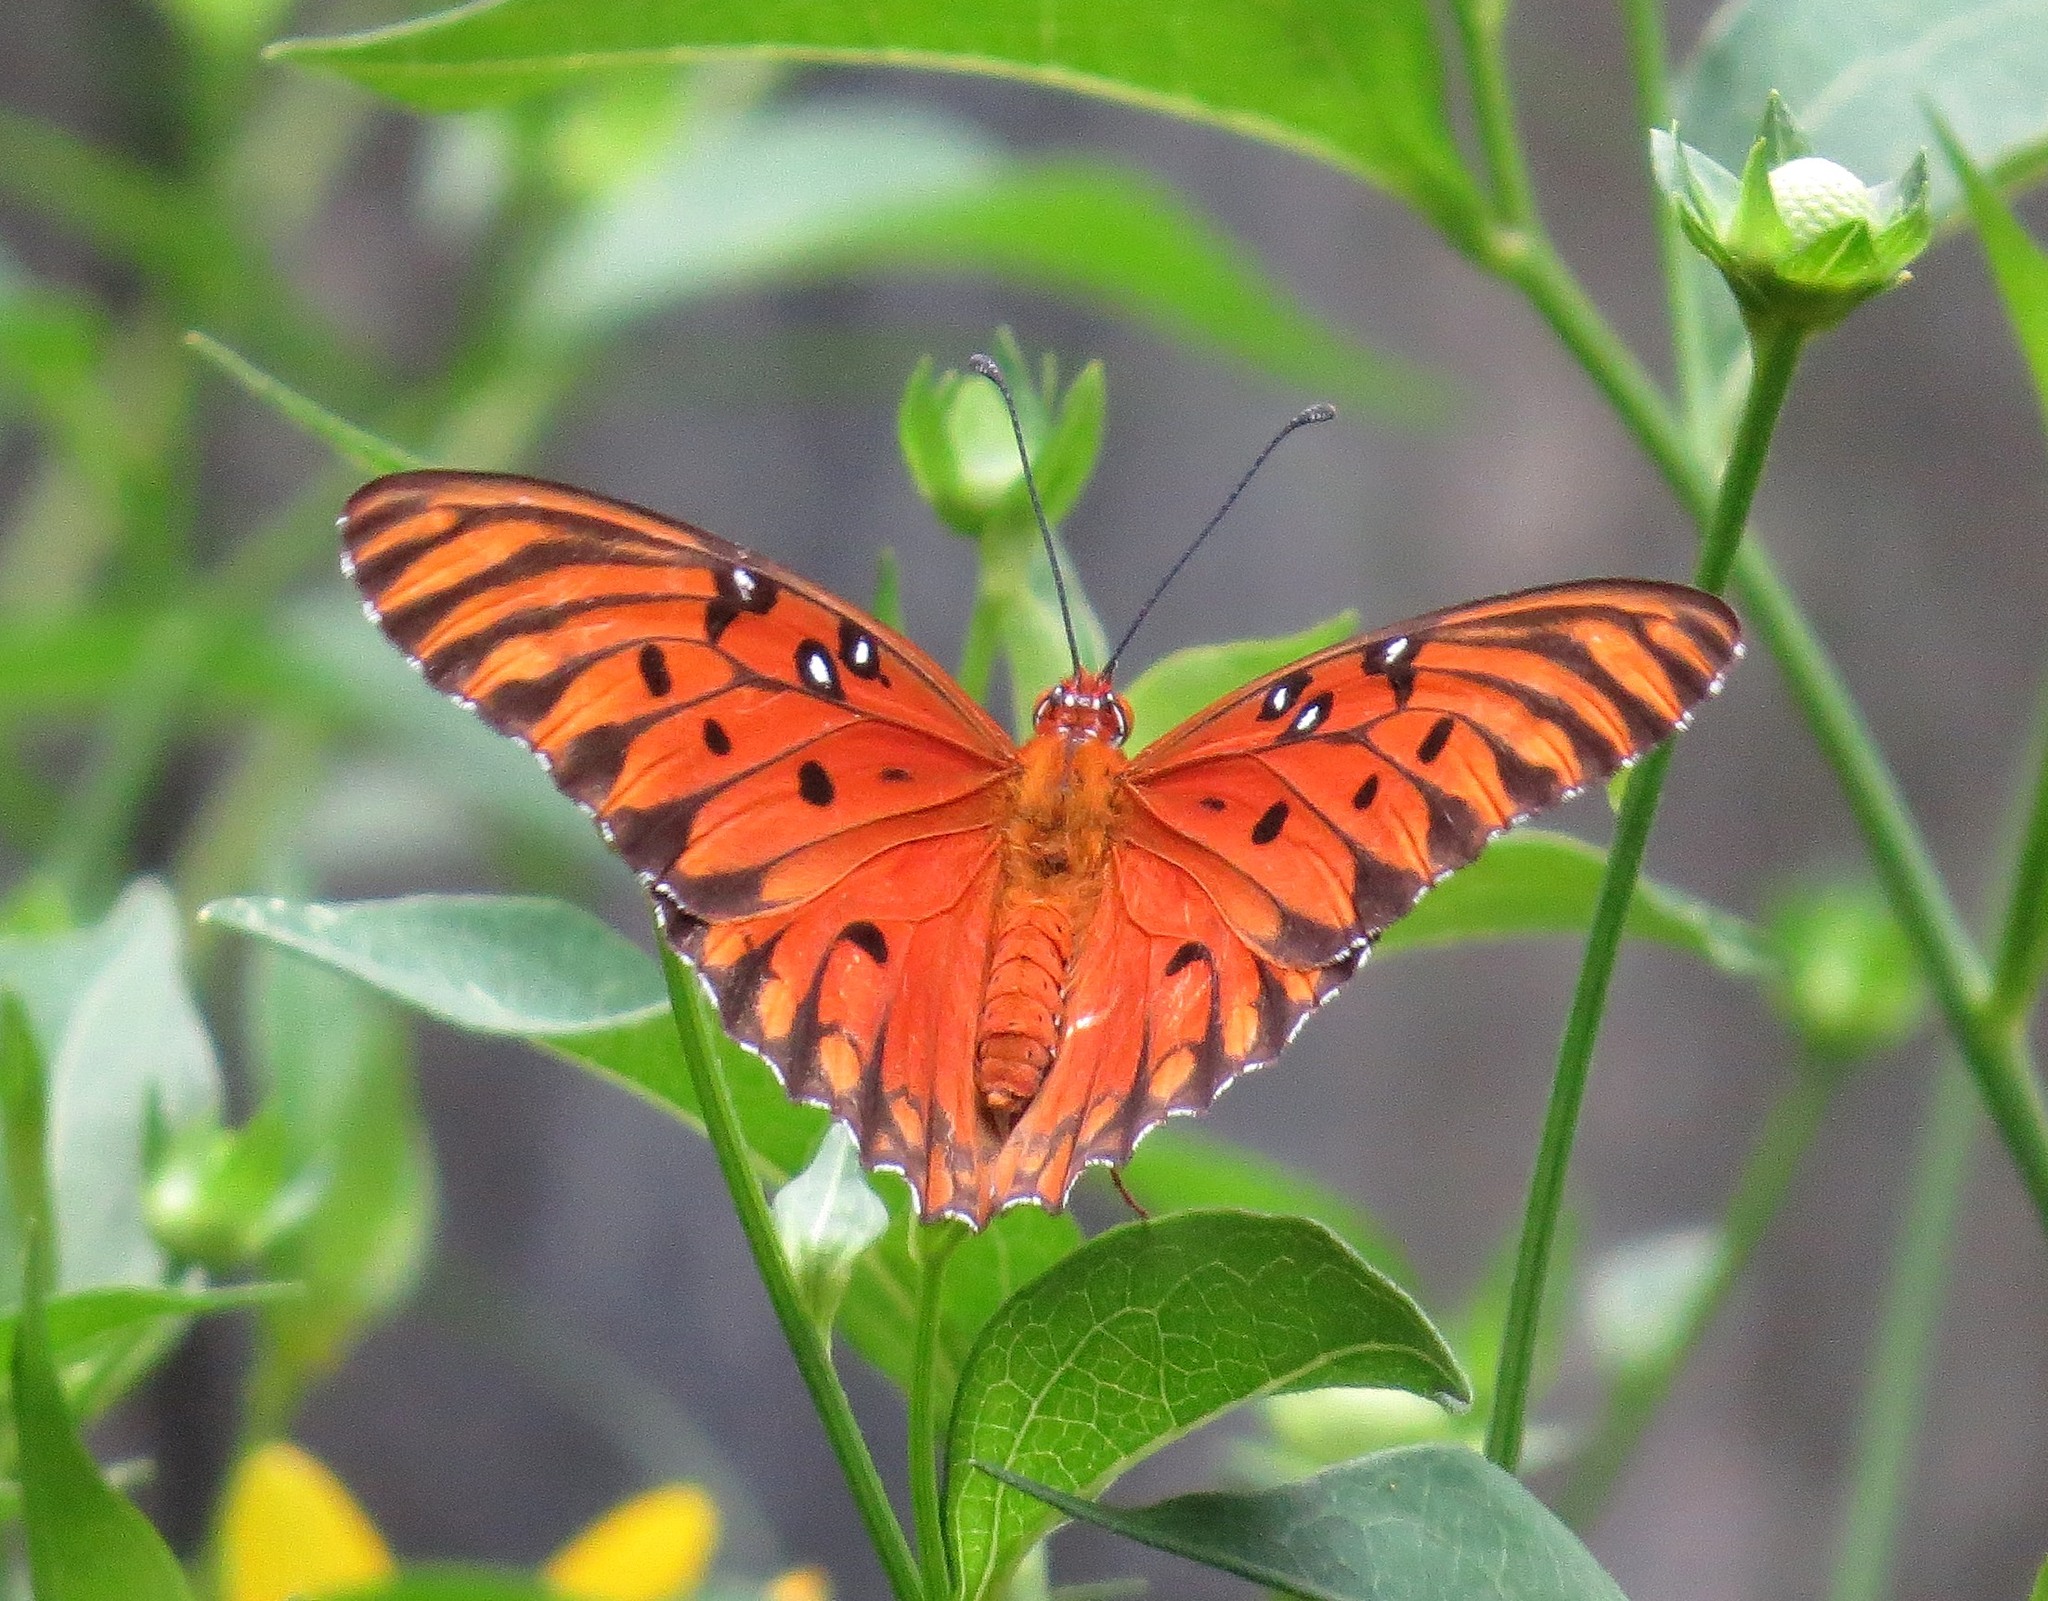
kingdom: Animalia
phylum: Arthropoda
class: Insecta
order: Lepidoptera
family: Nymphalidae
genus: Dione
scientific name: Dione vanillae
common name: Gulf fritillary
